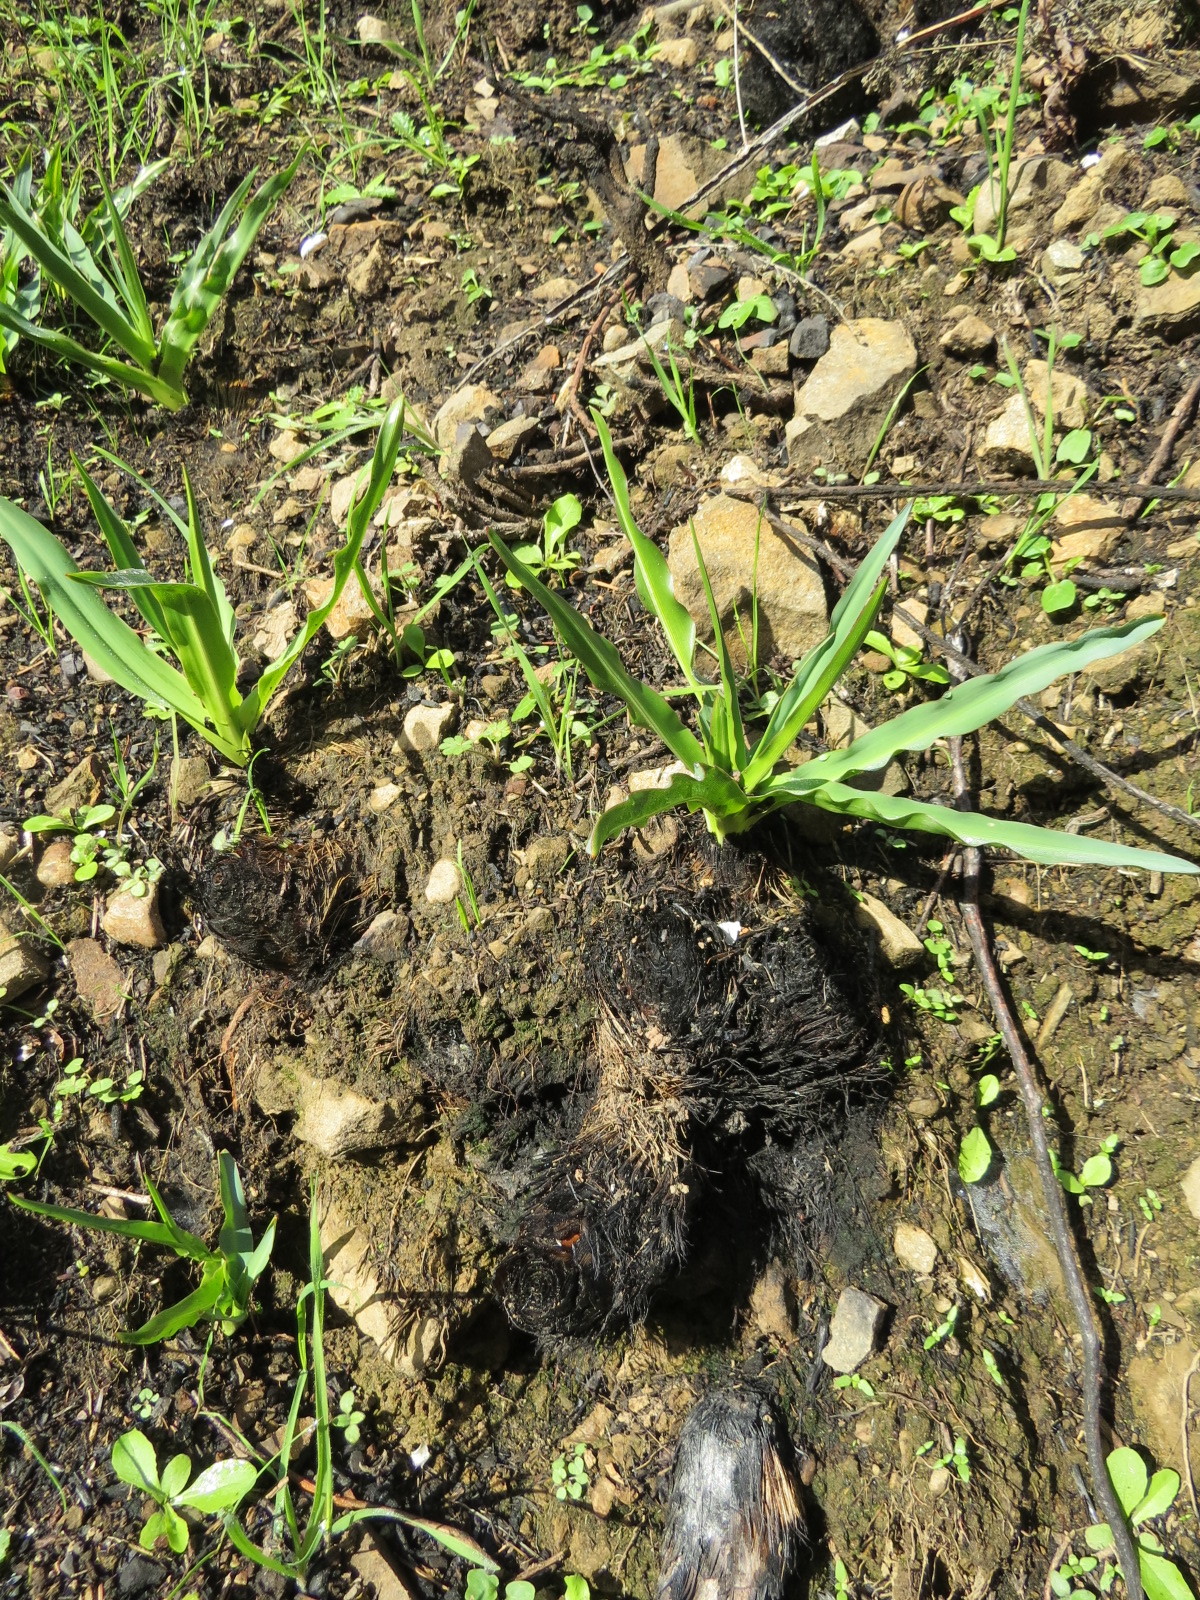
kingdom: Plantae
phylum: Tracheophyta
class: Liliopsida
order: Asparagales
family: Asparagaceae
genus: Chlorogalum
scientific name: Chlorogalum pomeridianum
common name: Amole
